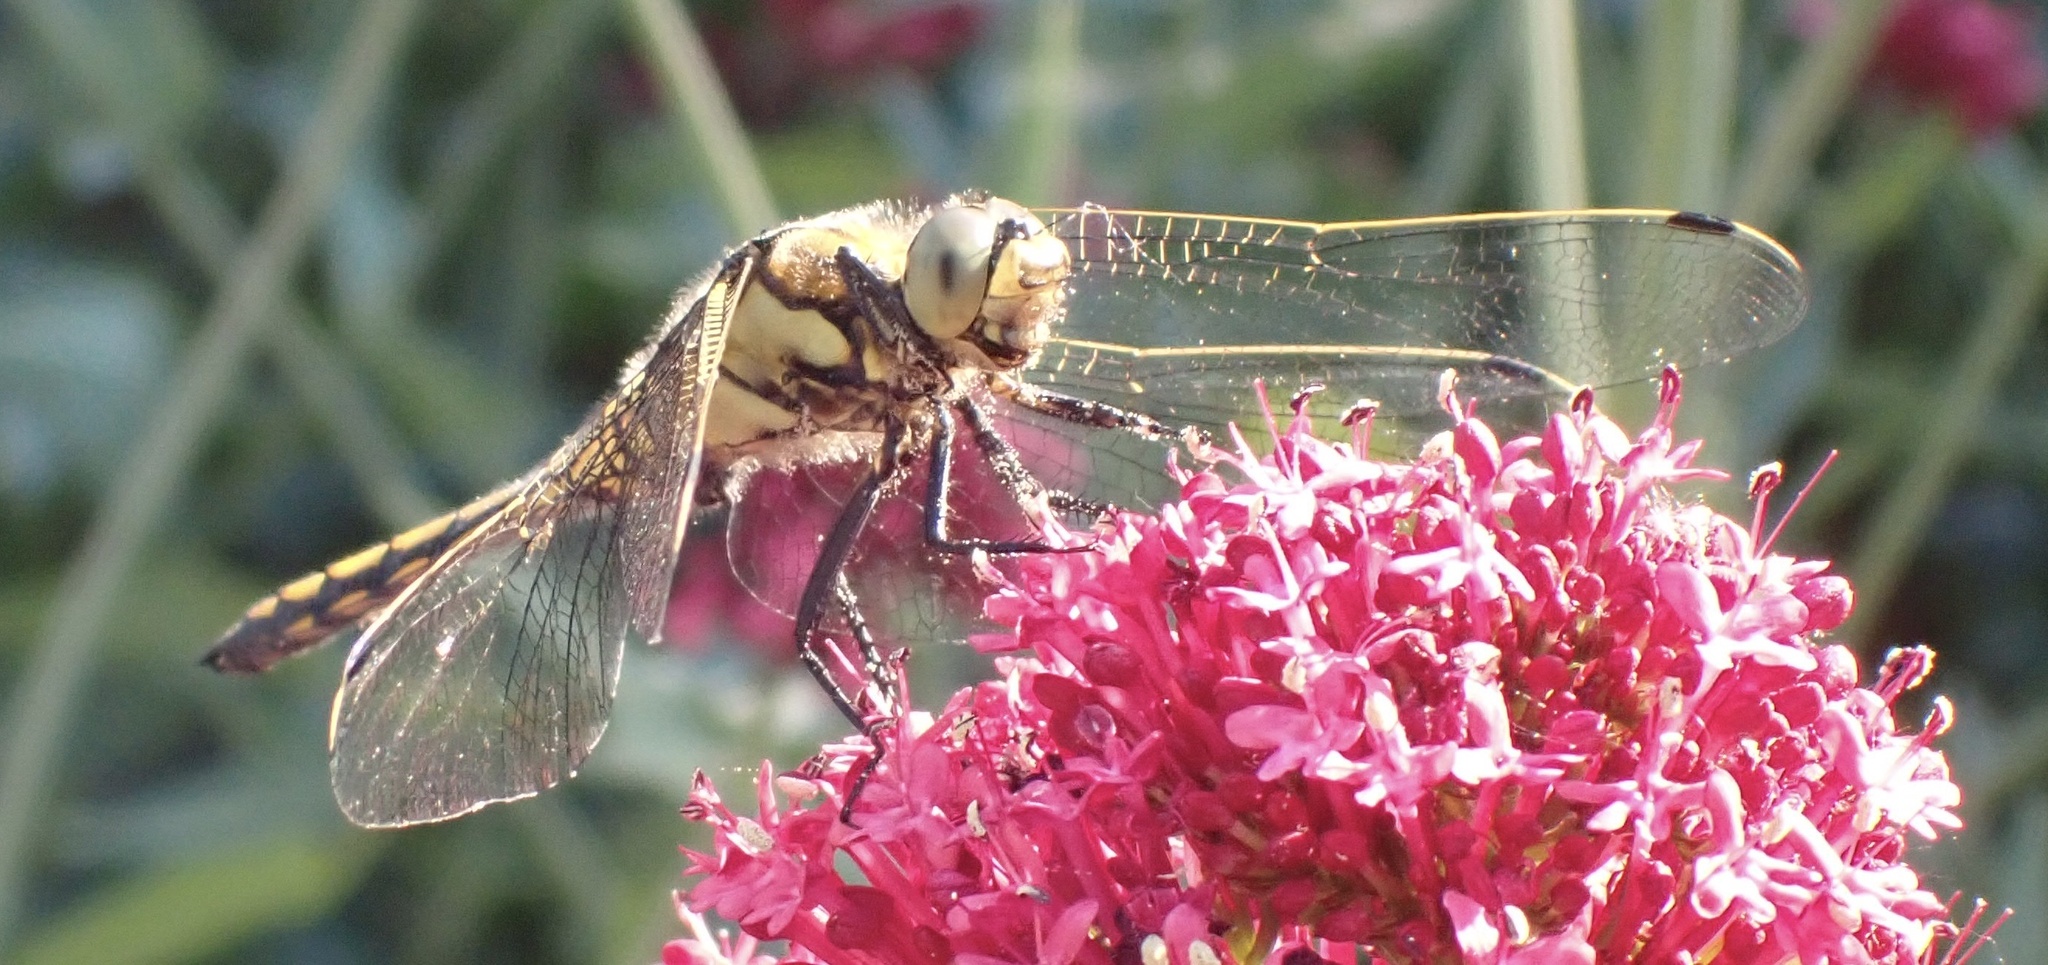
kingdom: Animalia
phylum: Arthropoda
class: Insecta
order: Odonata
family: Libellulidae
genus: Orthetrum
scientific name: Orthetrum cancellatum
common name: Black-tailed skimmer
